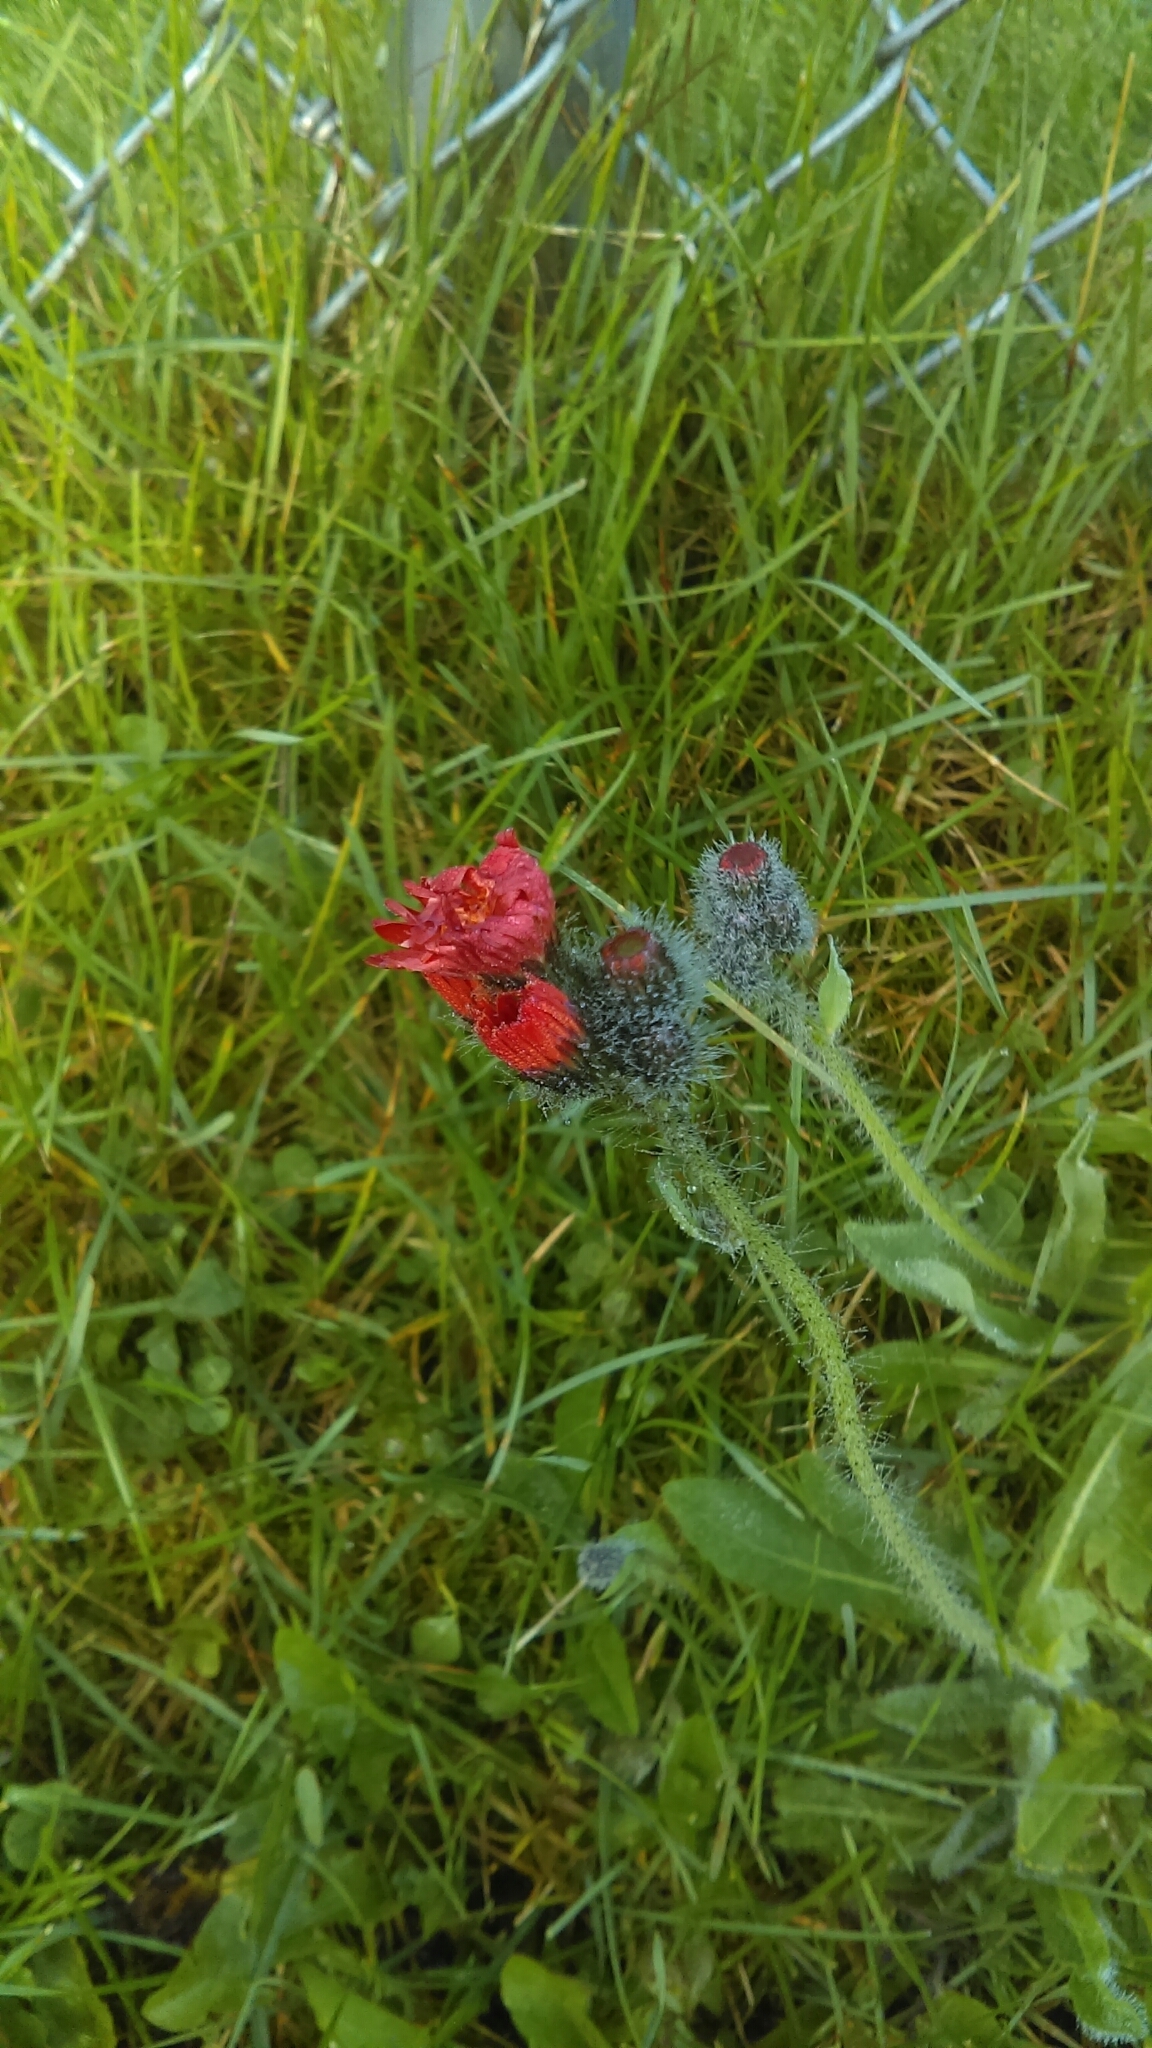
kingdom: Plantae
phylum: Tracheophyta
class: Magnoliopsida
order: Asterales
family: Asteraceae
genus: Pilosella
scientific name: Pilosella aurantiaca
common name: Fox-and-cubs
